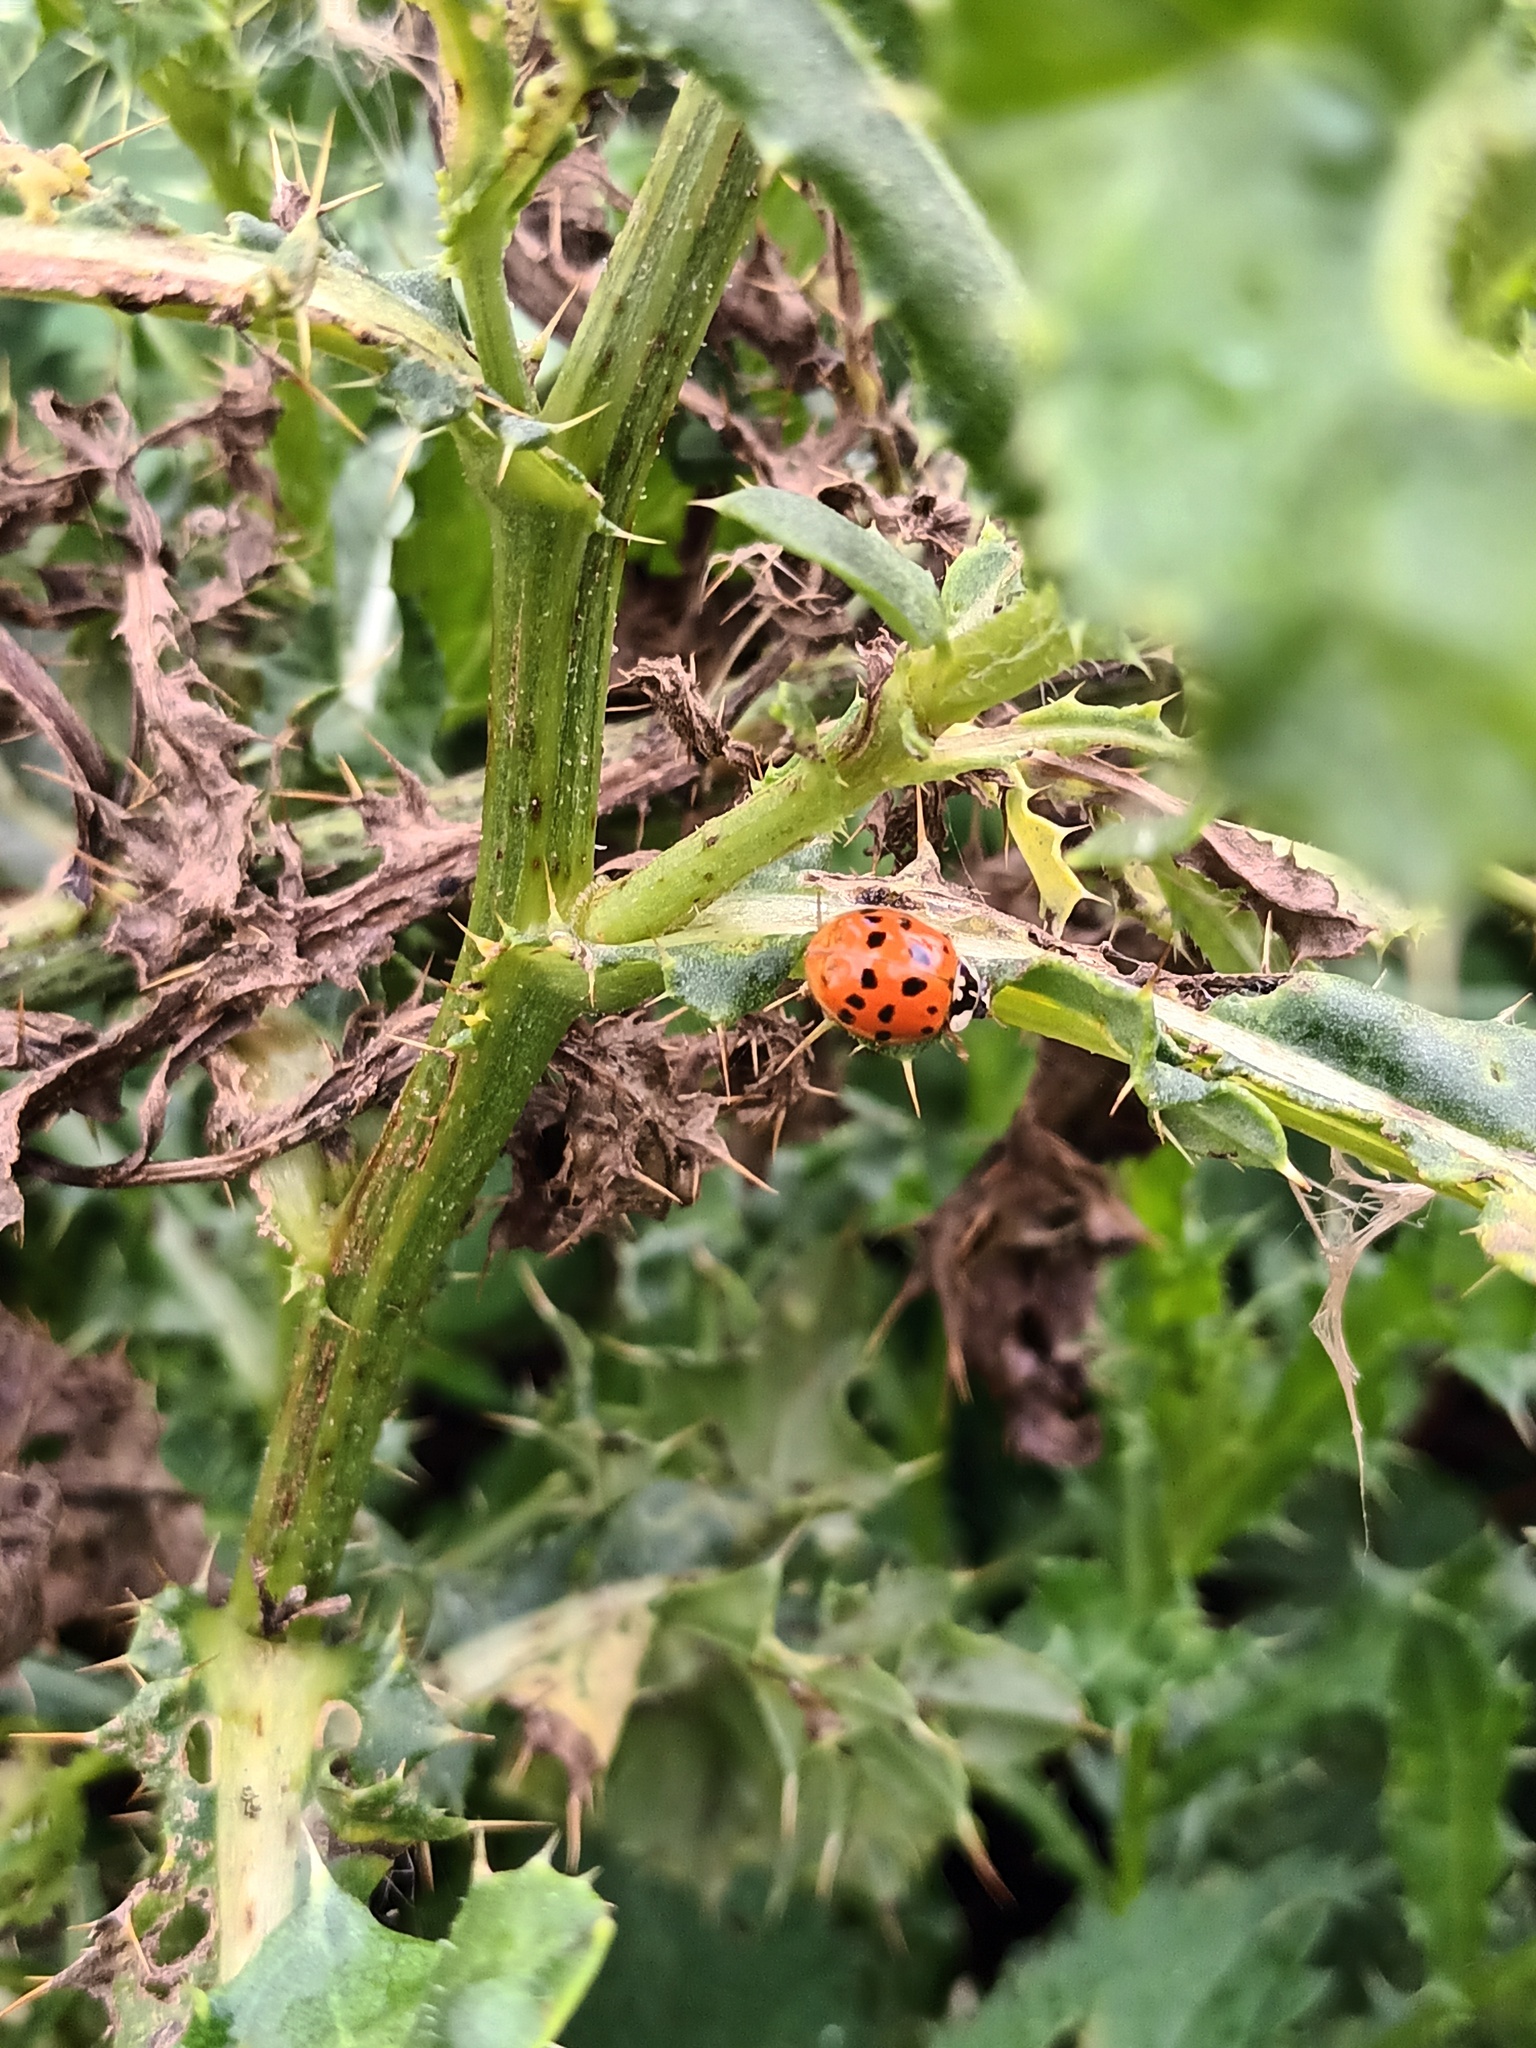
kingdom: Animalia
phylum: Arthropoda
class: Insecta
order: Coleoptera
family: Coccinellidae
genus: Harmonia
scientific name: Harmonia axyridis
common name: Harlequin ladybird
